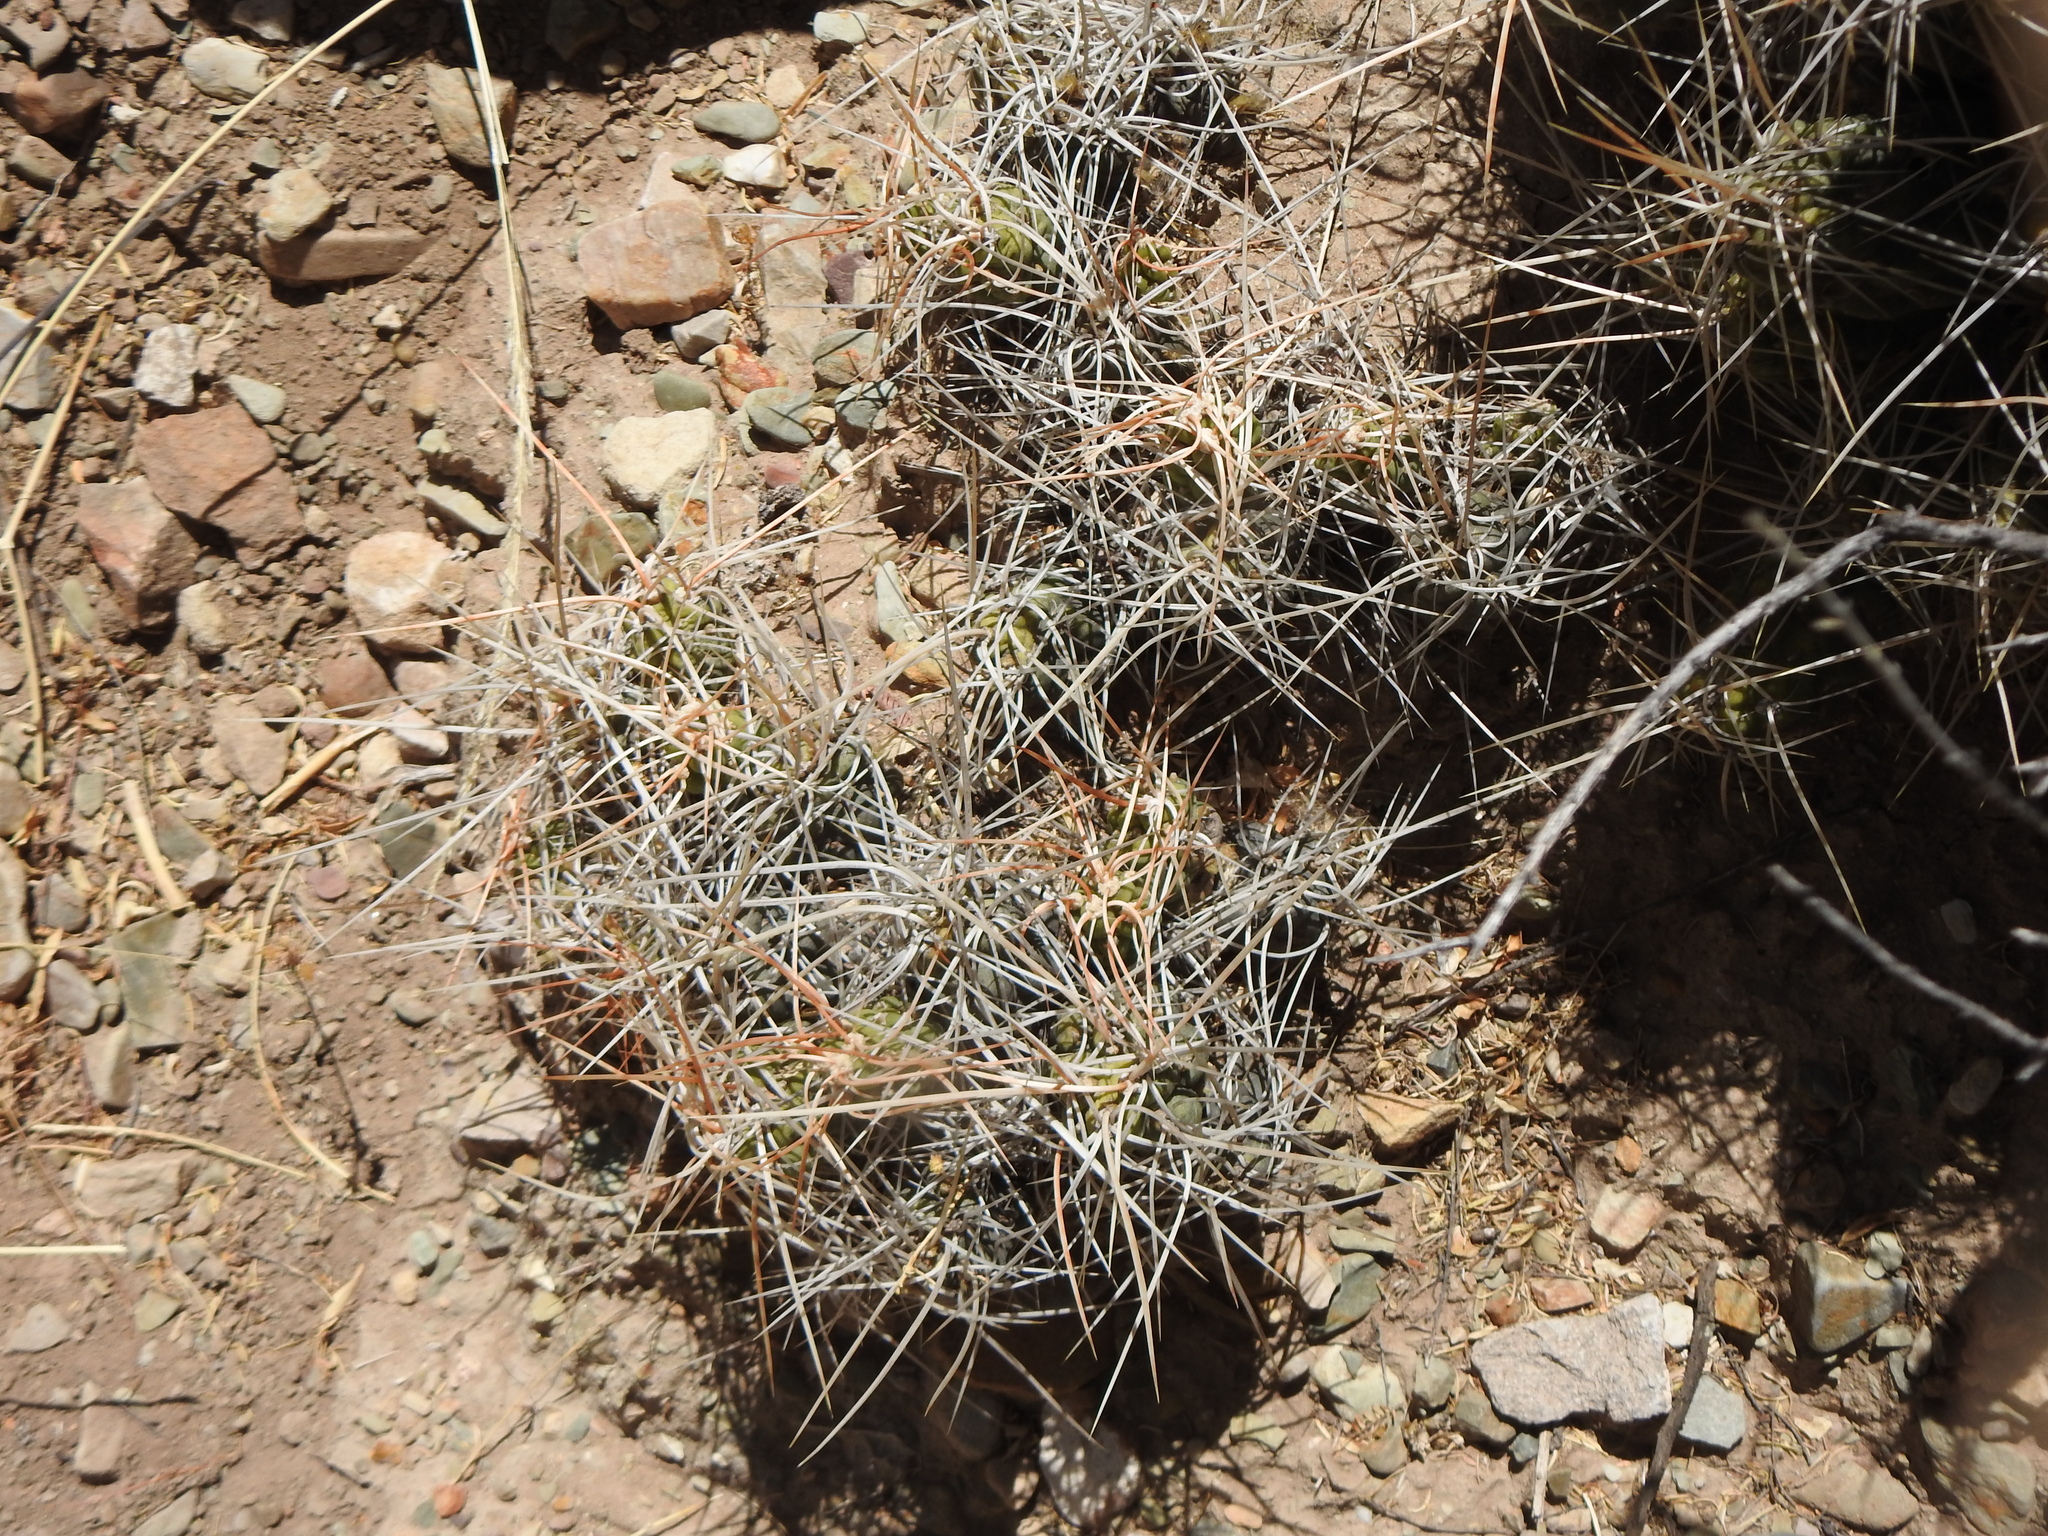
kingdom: Plantae
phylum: Tracheophyta
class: Magnoliopsida
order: Caryophyllales
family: Cactaceae
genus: Cumulopuntia
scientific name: Cumulopuntia chichensis
